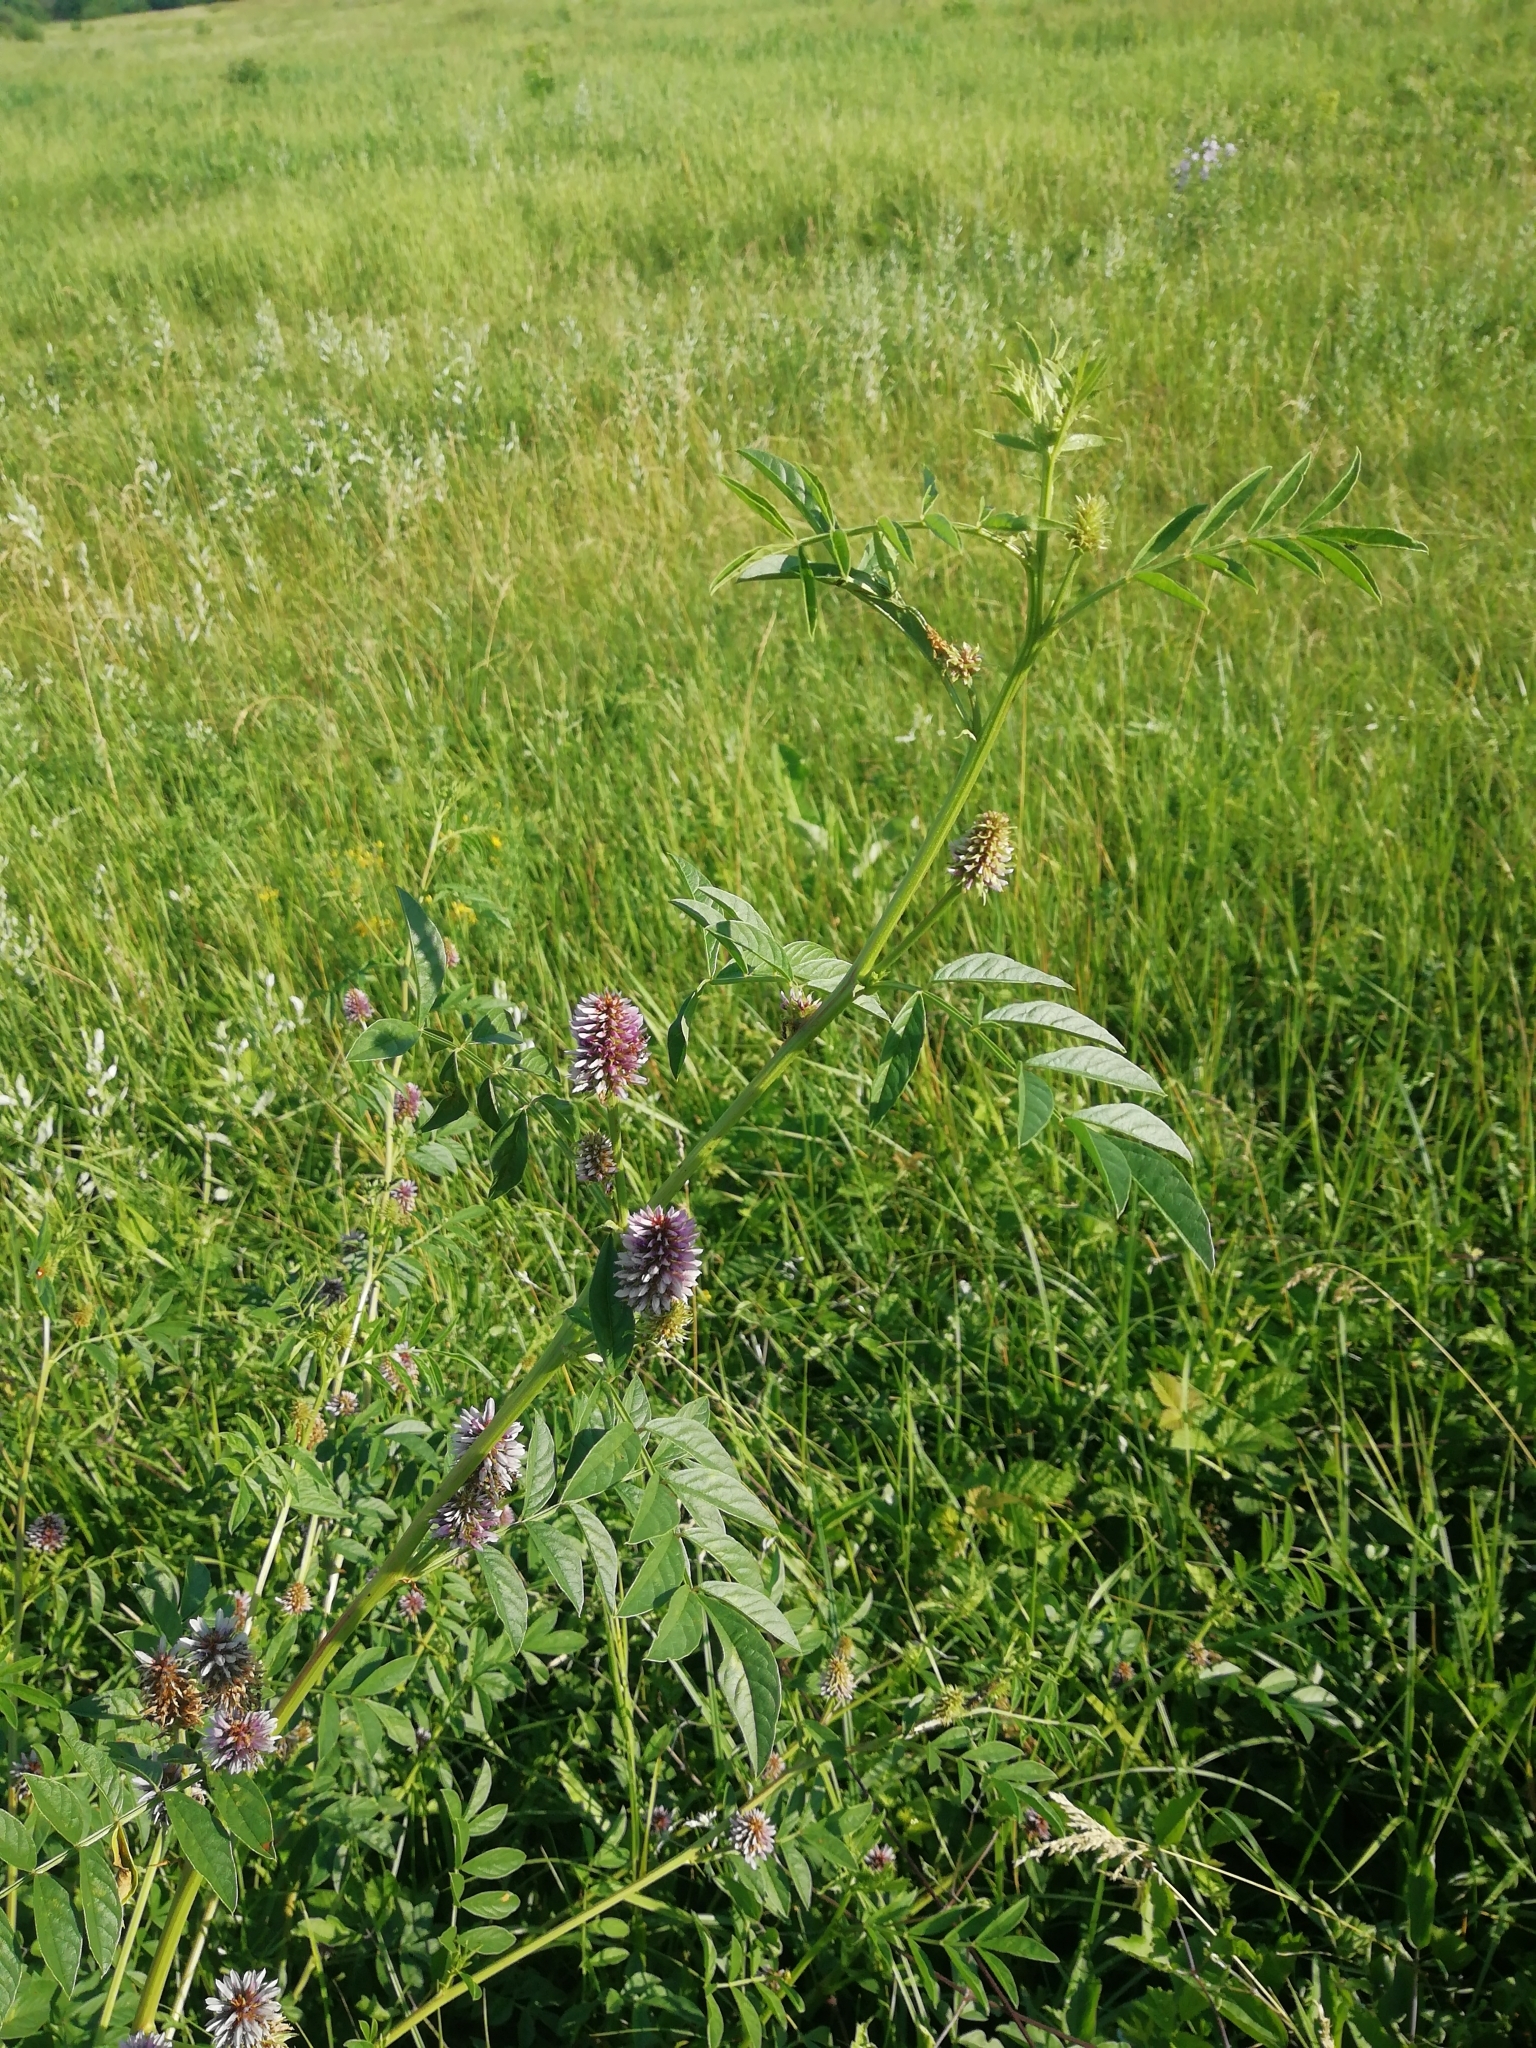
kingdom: Plantae
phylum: Tracheophyta
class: Magnoliopsida
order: Fabales
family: Fabaceae
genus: Glycyrrhiza
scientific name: Glycyrrhiza echinata
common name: German liquorice
